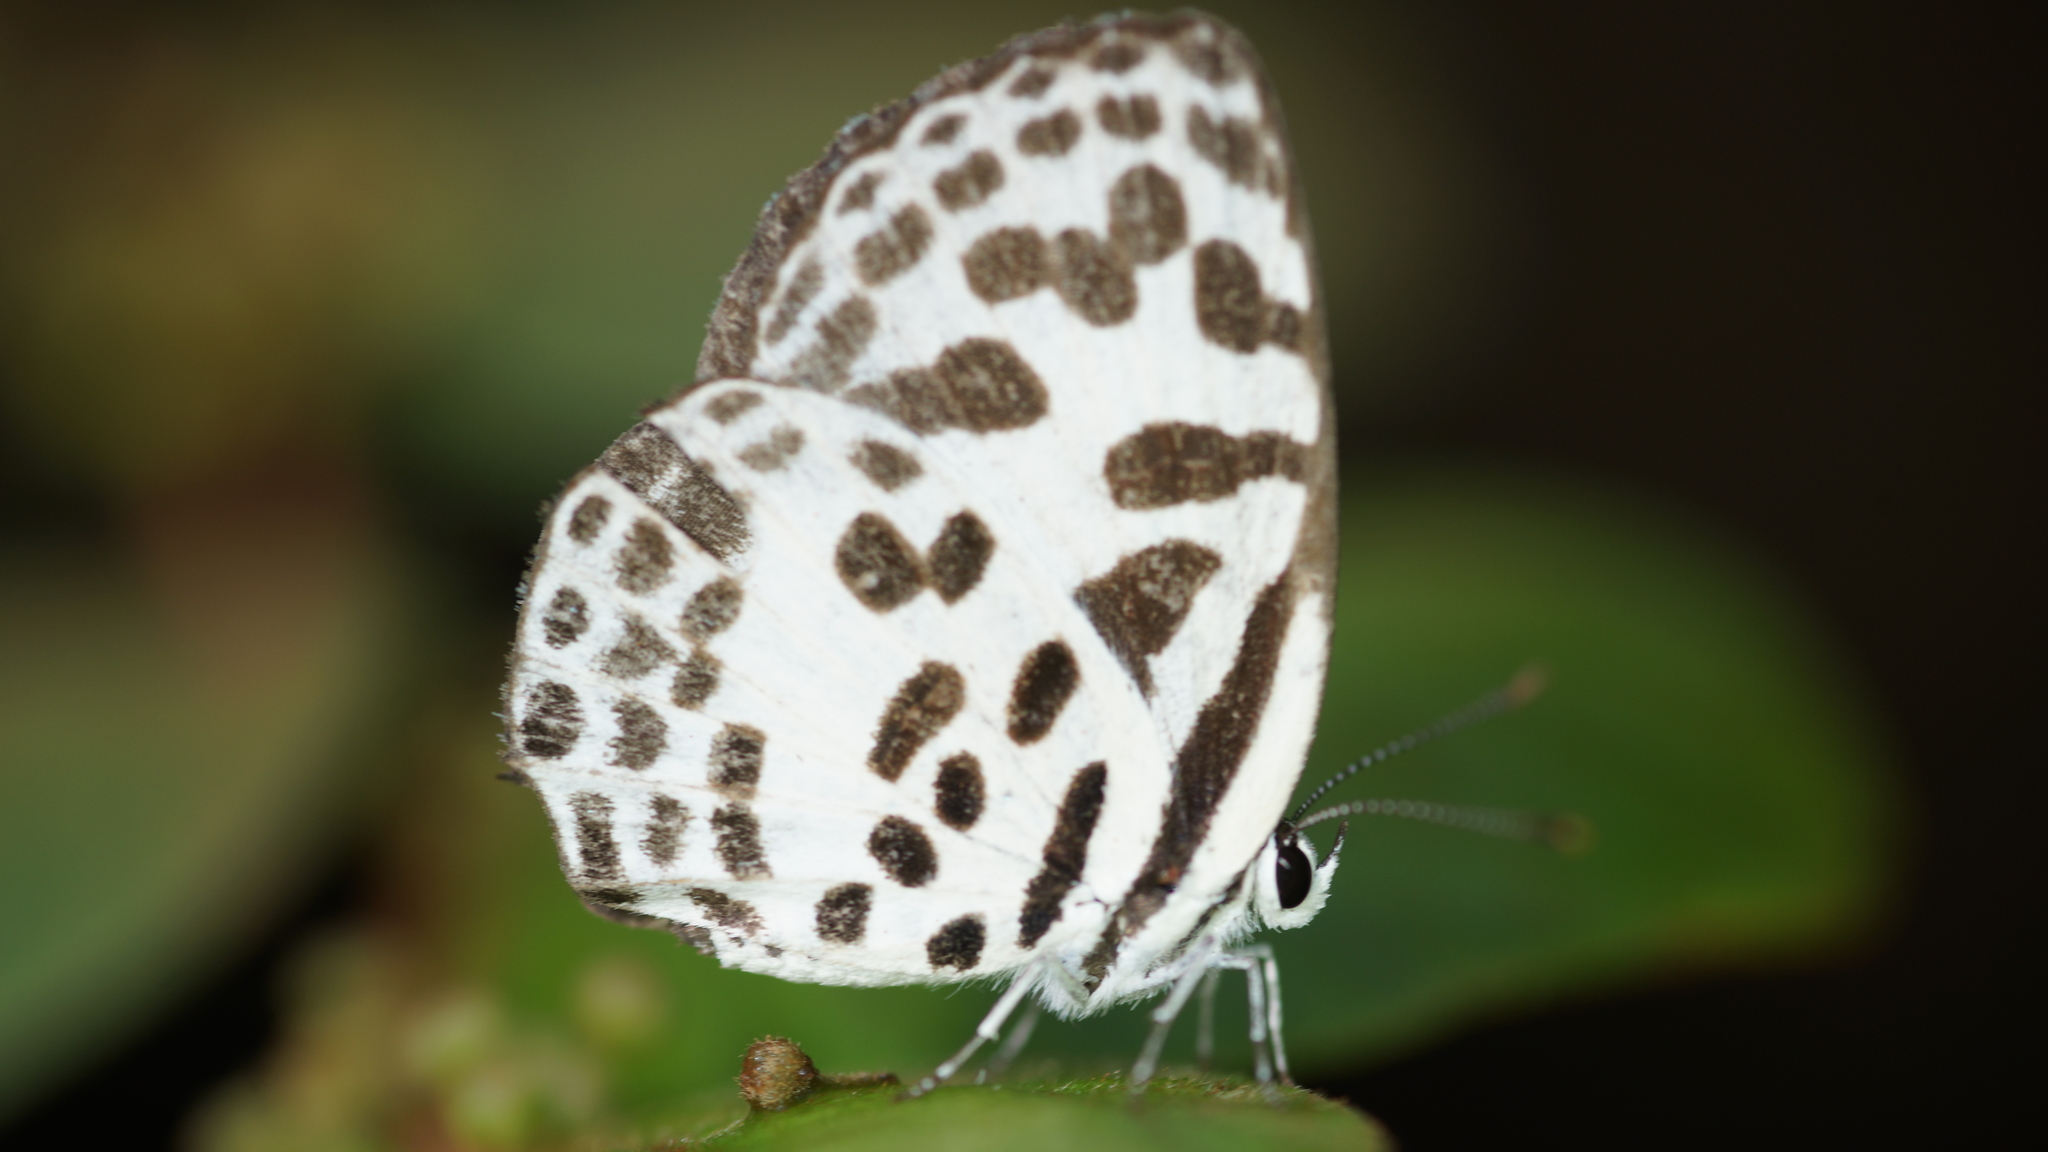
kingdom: Animalia
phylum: Arthropoda
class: Insecta
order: Lepidoptera
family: Lycaenidae
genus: Castalius
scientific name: Castalius rosimon
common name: Common pierrot
